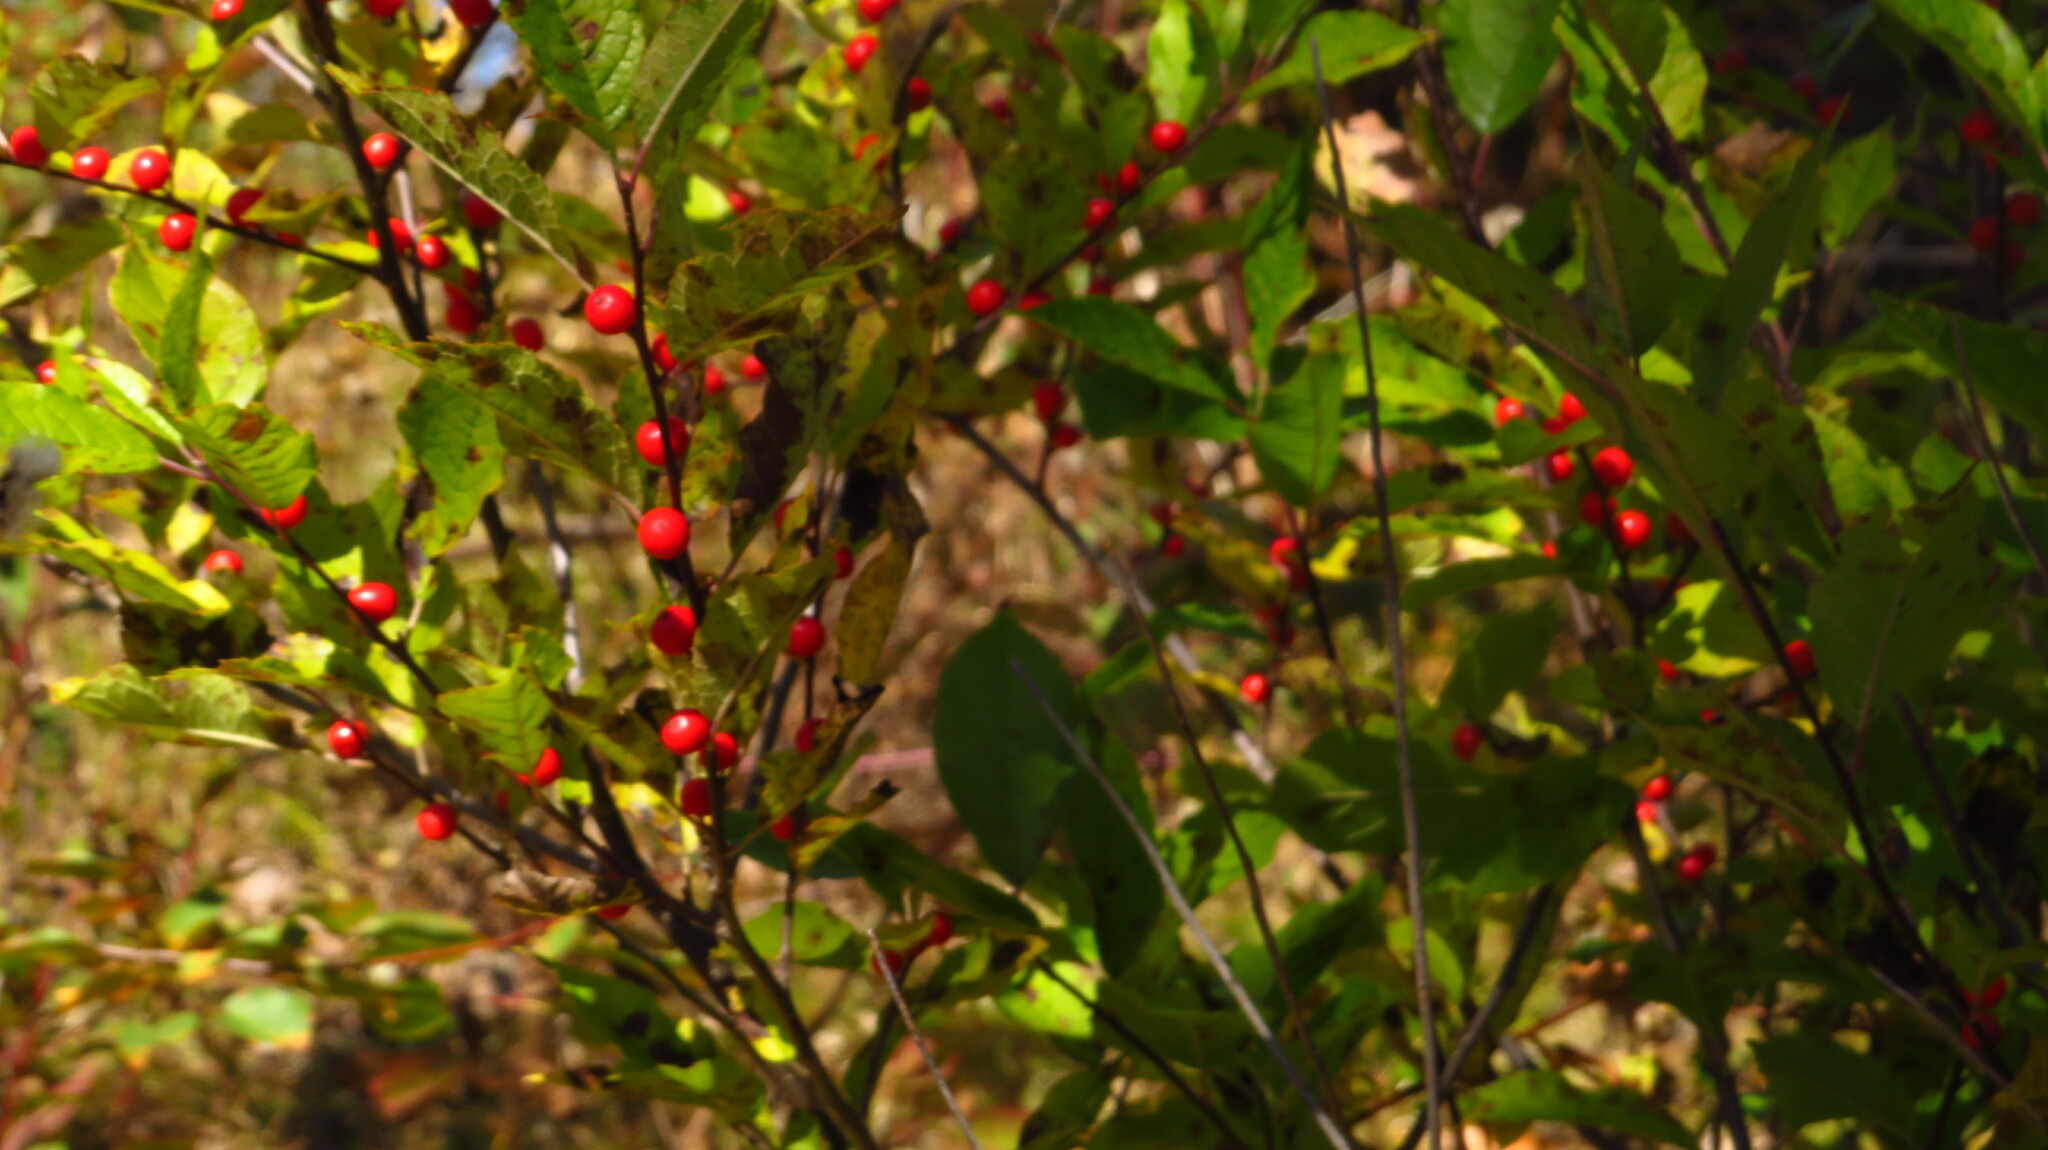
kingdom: Plantae
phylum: Tracheophyta
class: Magnoliopsida
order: Aquifoliales
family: Aquifoliaceae
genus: Ilex
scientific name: Ilex verticillata
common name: Virginia winterberry
